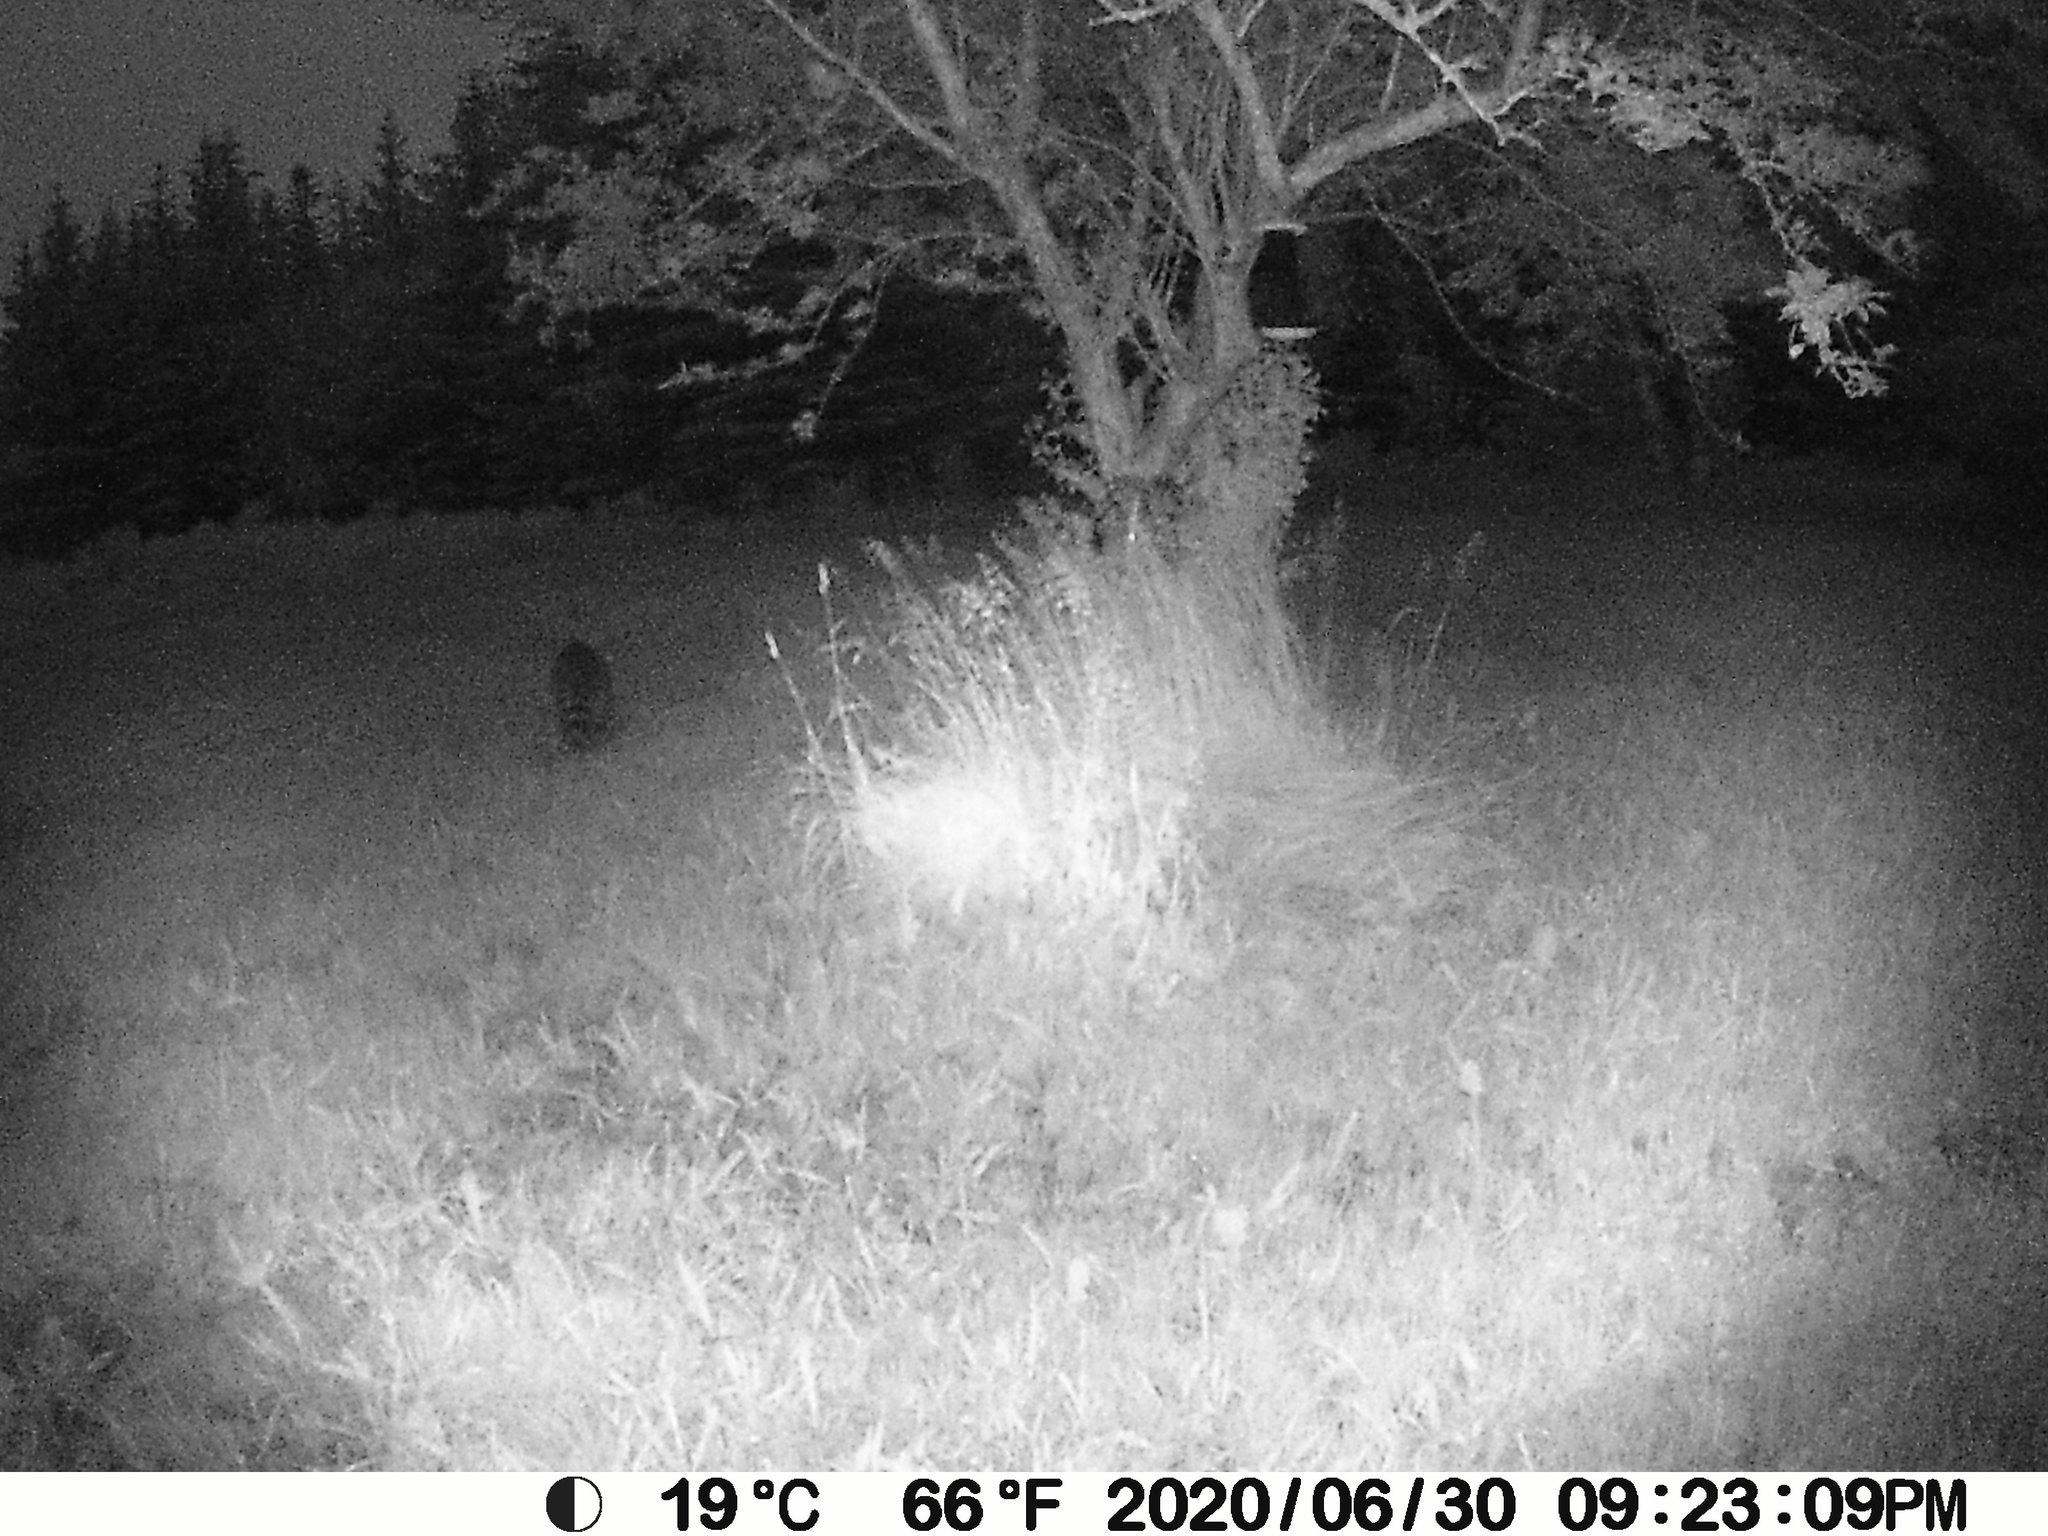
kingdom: Animalia
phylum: Chordata
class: Mammalia
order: Carnivora
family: Procyonidae
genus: Procyon
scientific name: Procyon lotor
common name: Raccoon
